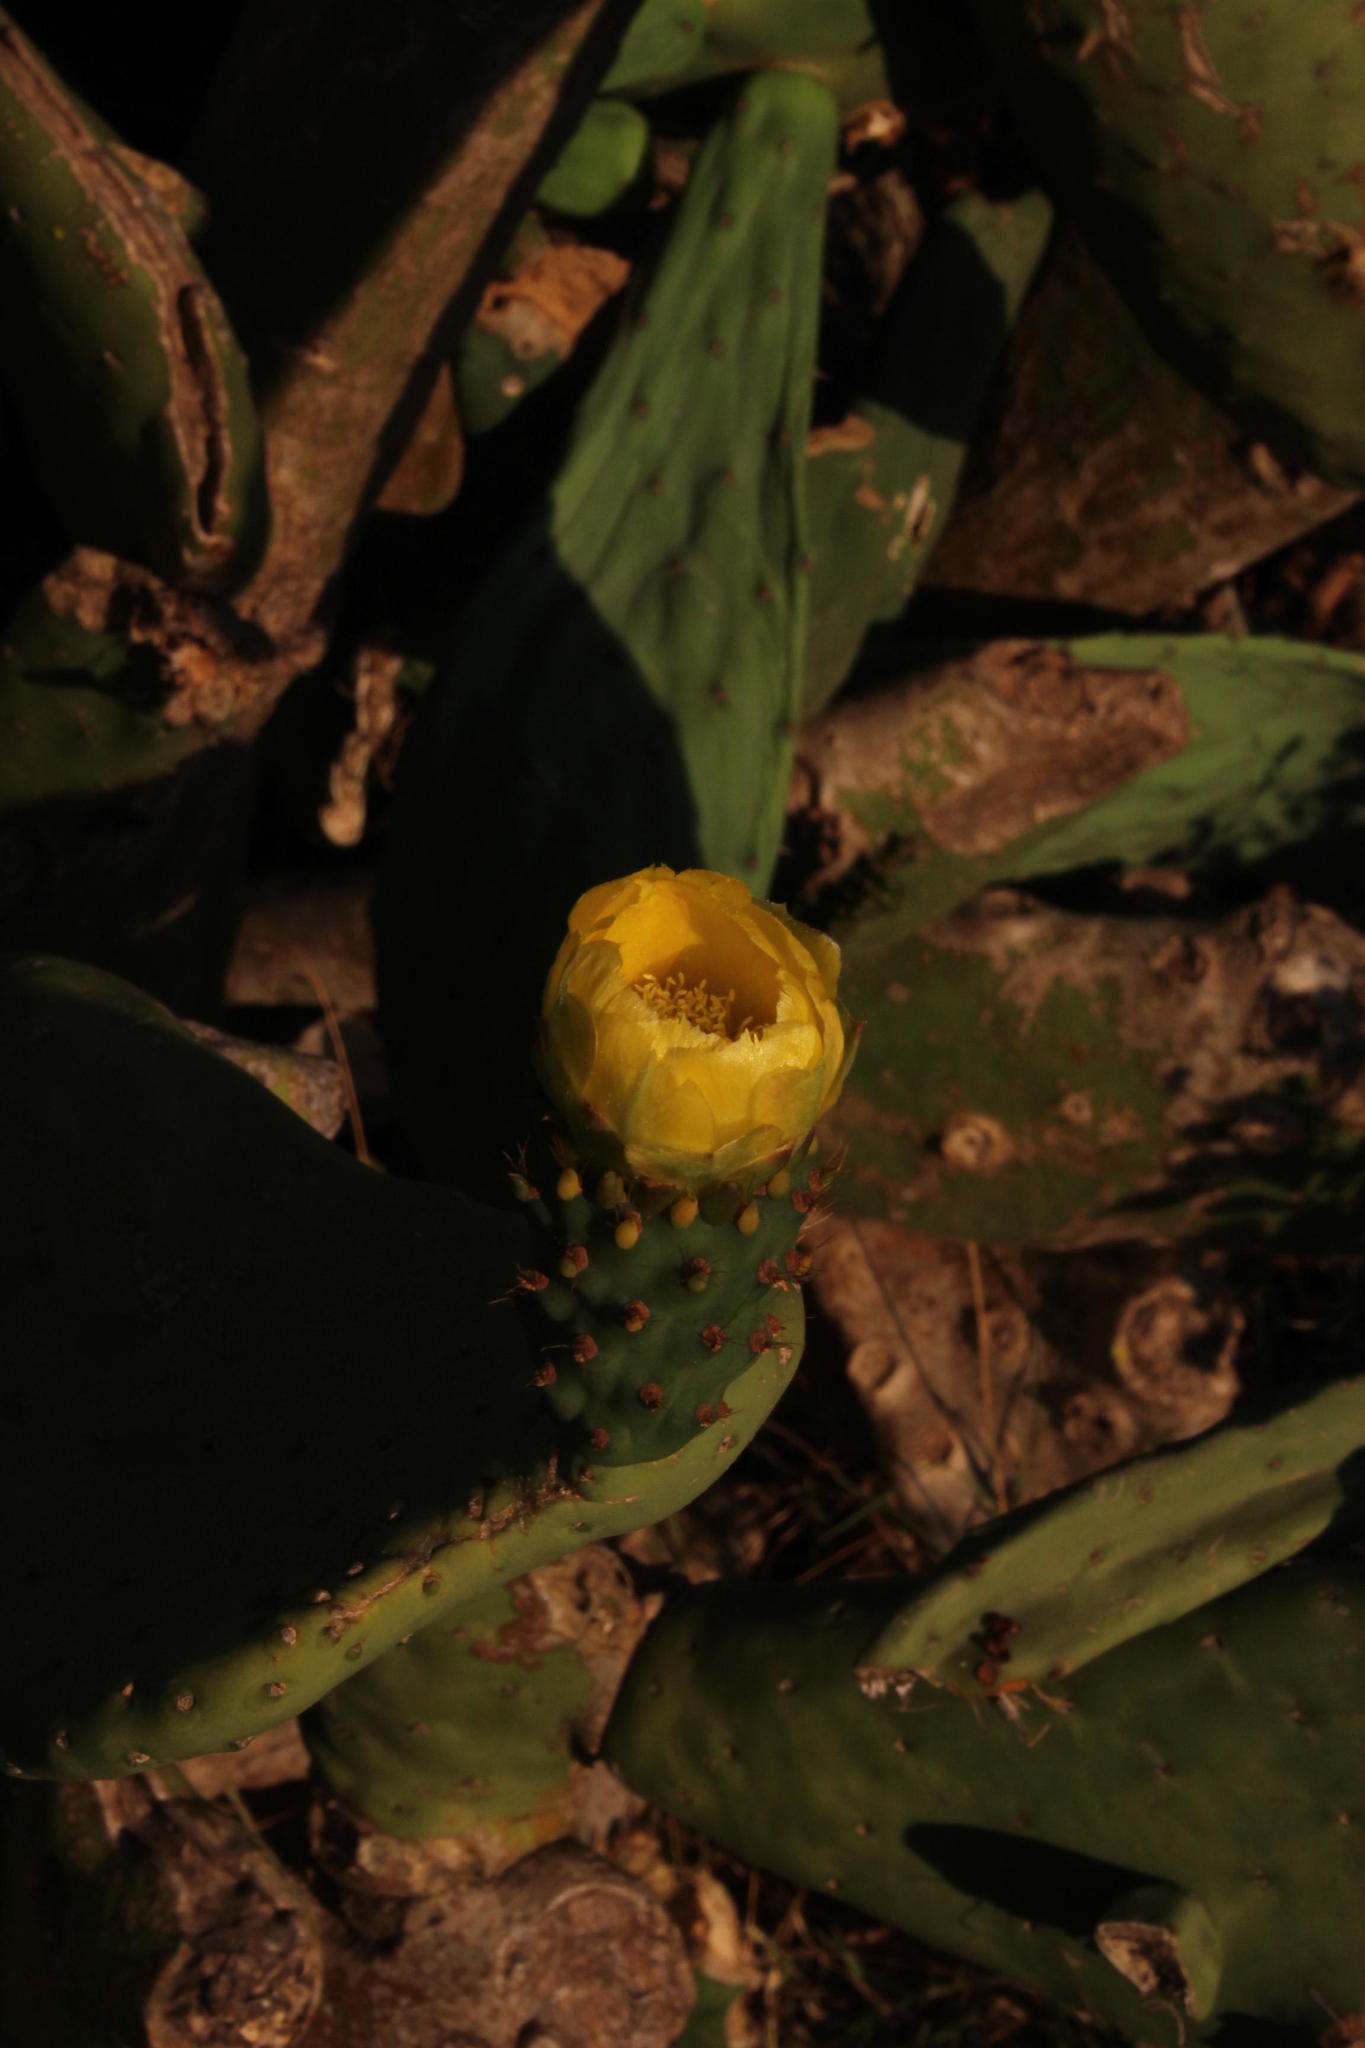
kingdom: Plantae
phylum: Tracheophyta
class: Magnoliopsida
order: Caryophyllales
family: Cactaceae
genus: Opuntia
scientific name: Opuntia ficus-indica
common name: Barbary fig
